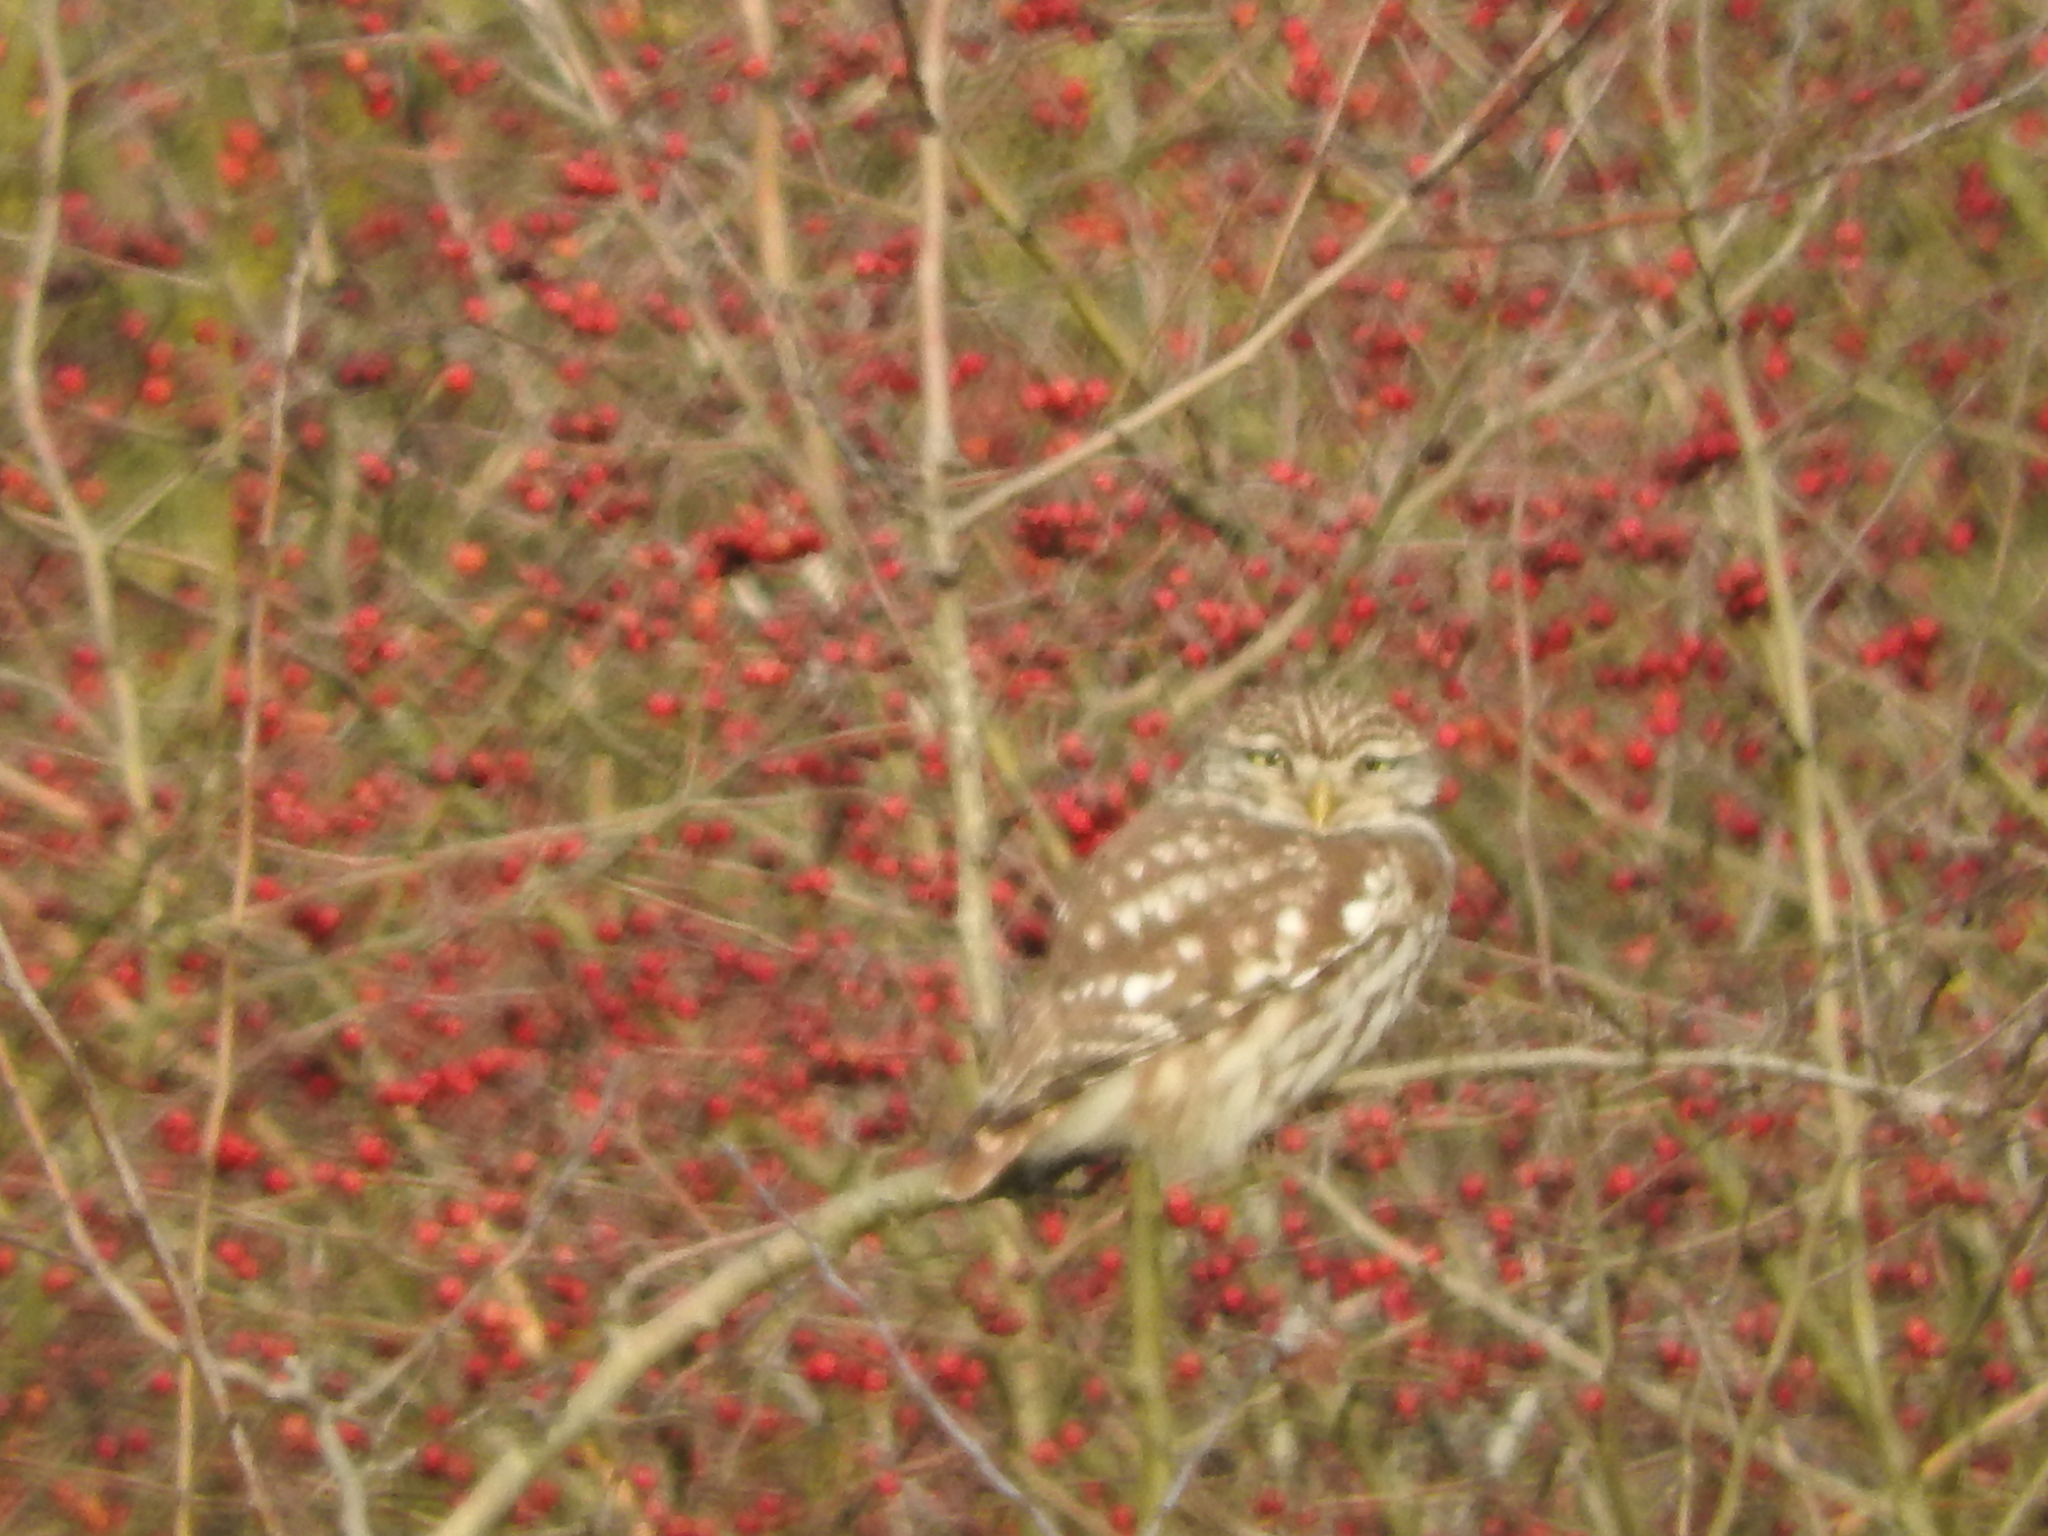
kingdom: Animalia
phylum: Chordata
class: Aves
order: Strigiformes
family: Strigidae
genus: Athene
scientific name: Athene noctua
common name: Little owl
